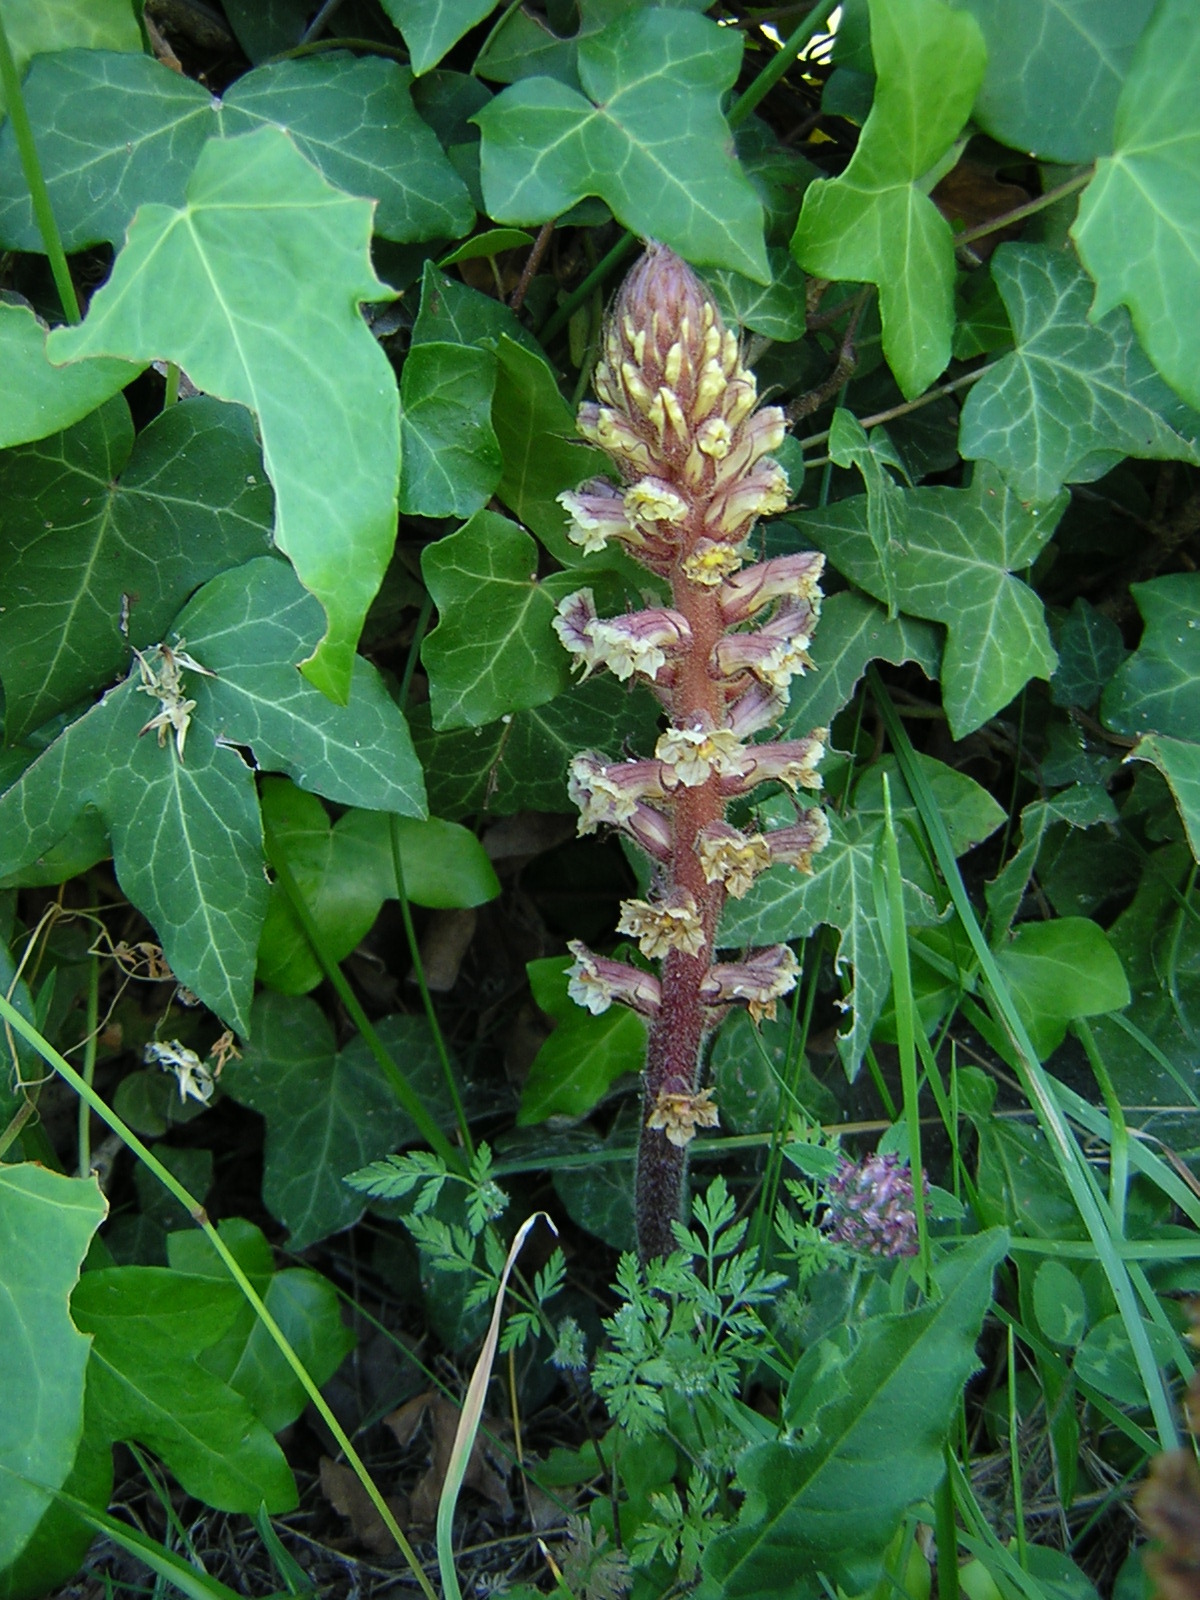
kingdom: Plantae
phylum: Tracheophyta
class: Magnoliopsida
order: Lamiales
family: Orobanchaceae
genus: Orobanche
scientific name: Orobanche hederae
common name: Ivy broomrape
